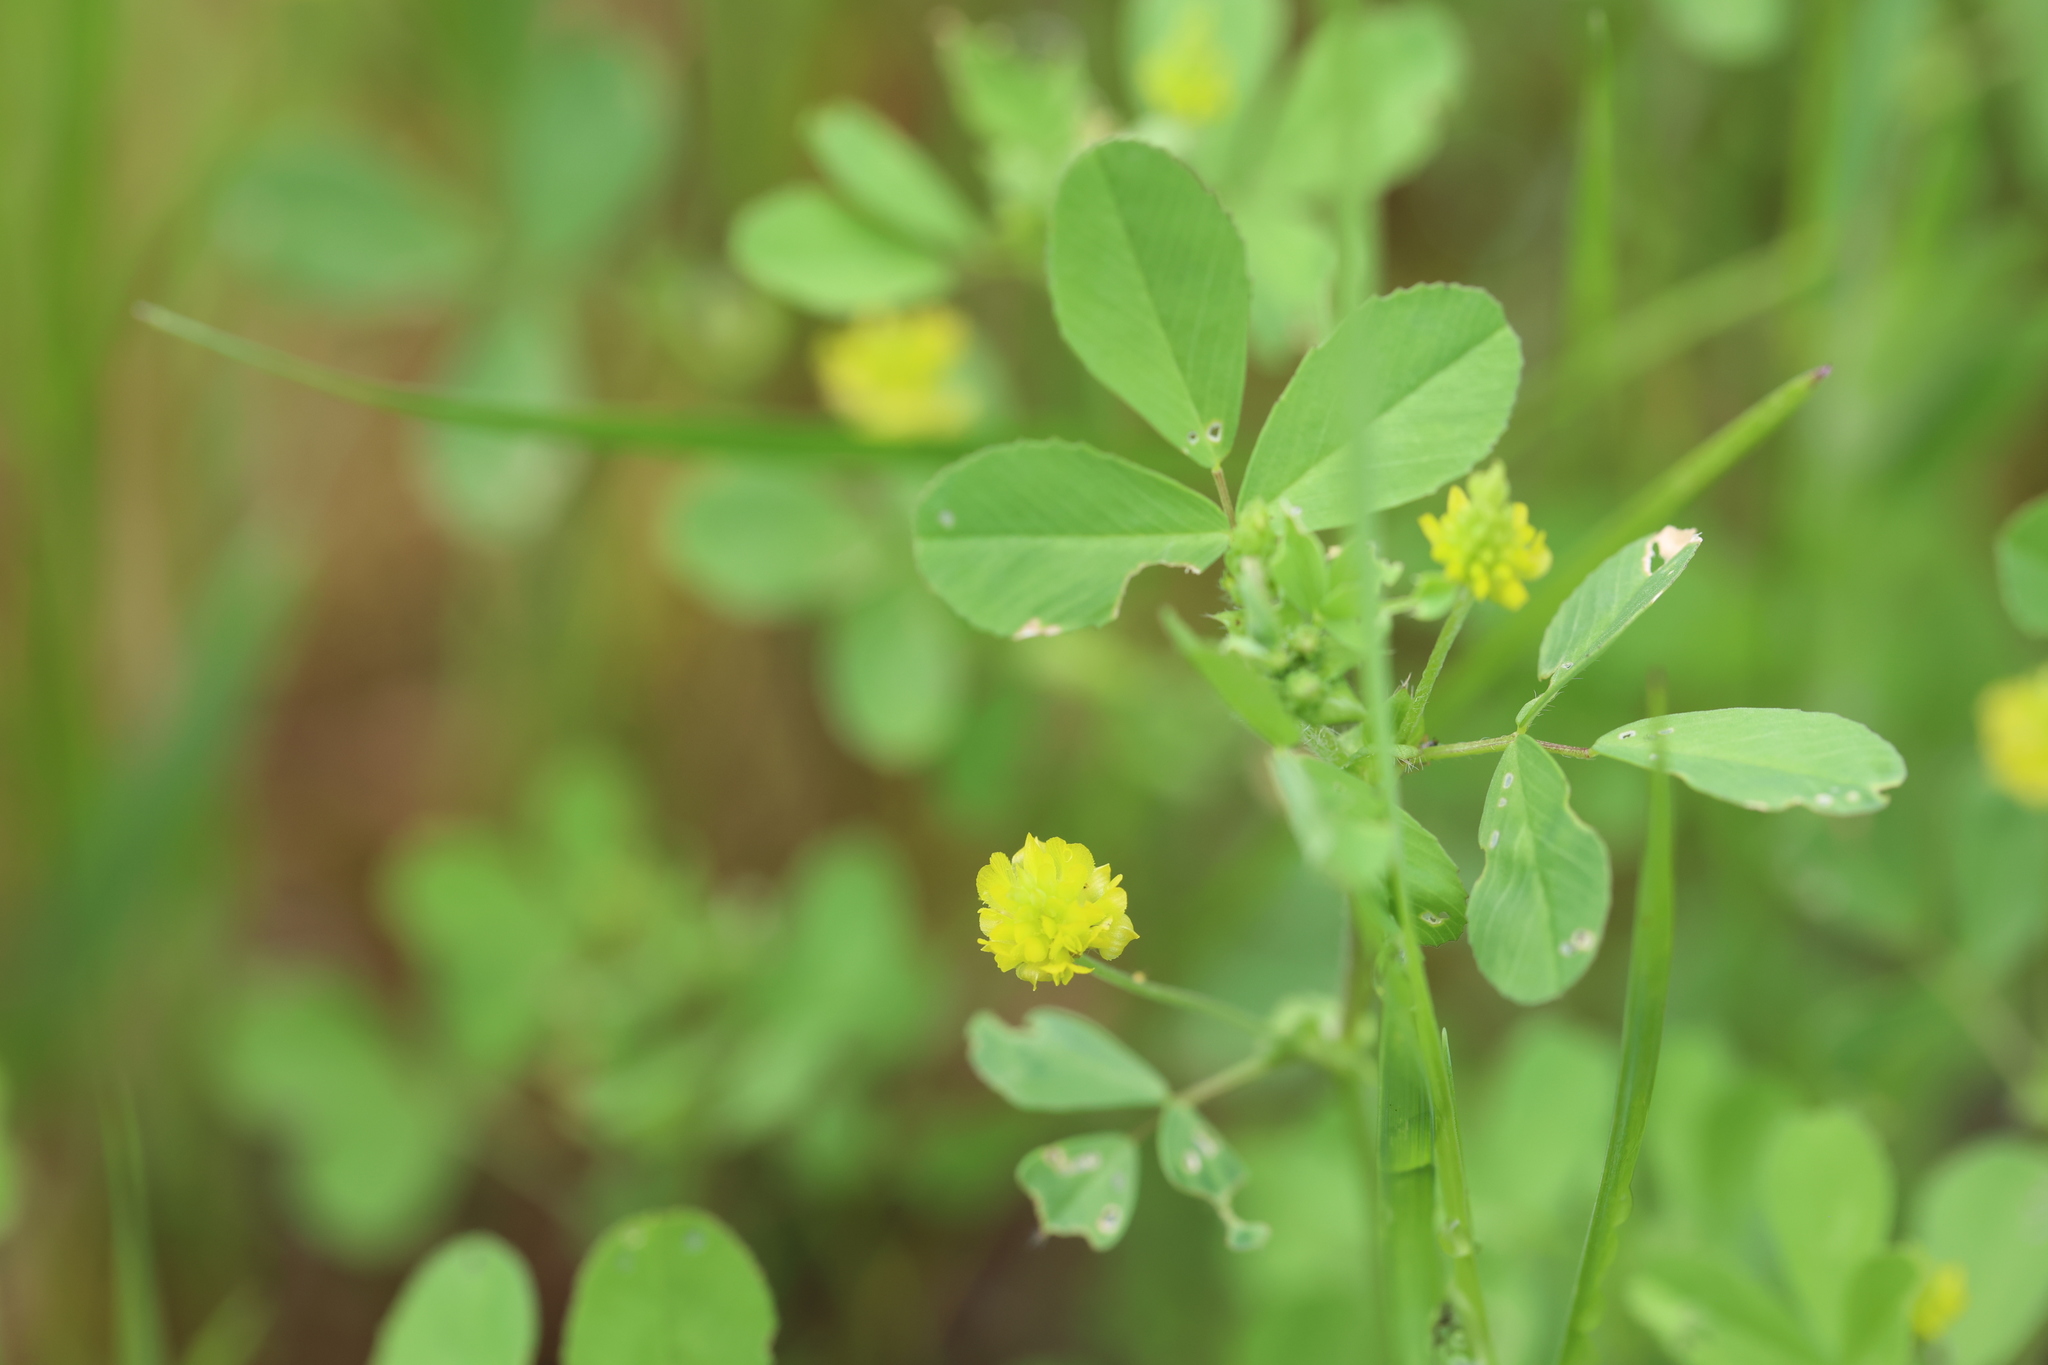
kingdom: Plantae
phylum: Tracheophyta
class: Magnoliopsida
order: Fabales
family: Fabaceae
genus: Trifolium
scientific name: Trifolium campestre
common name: Field clover
